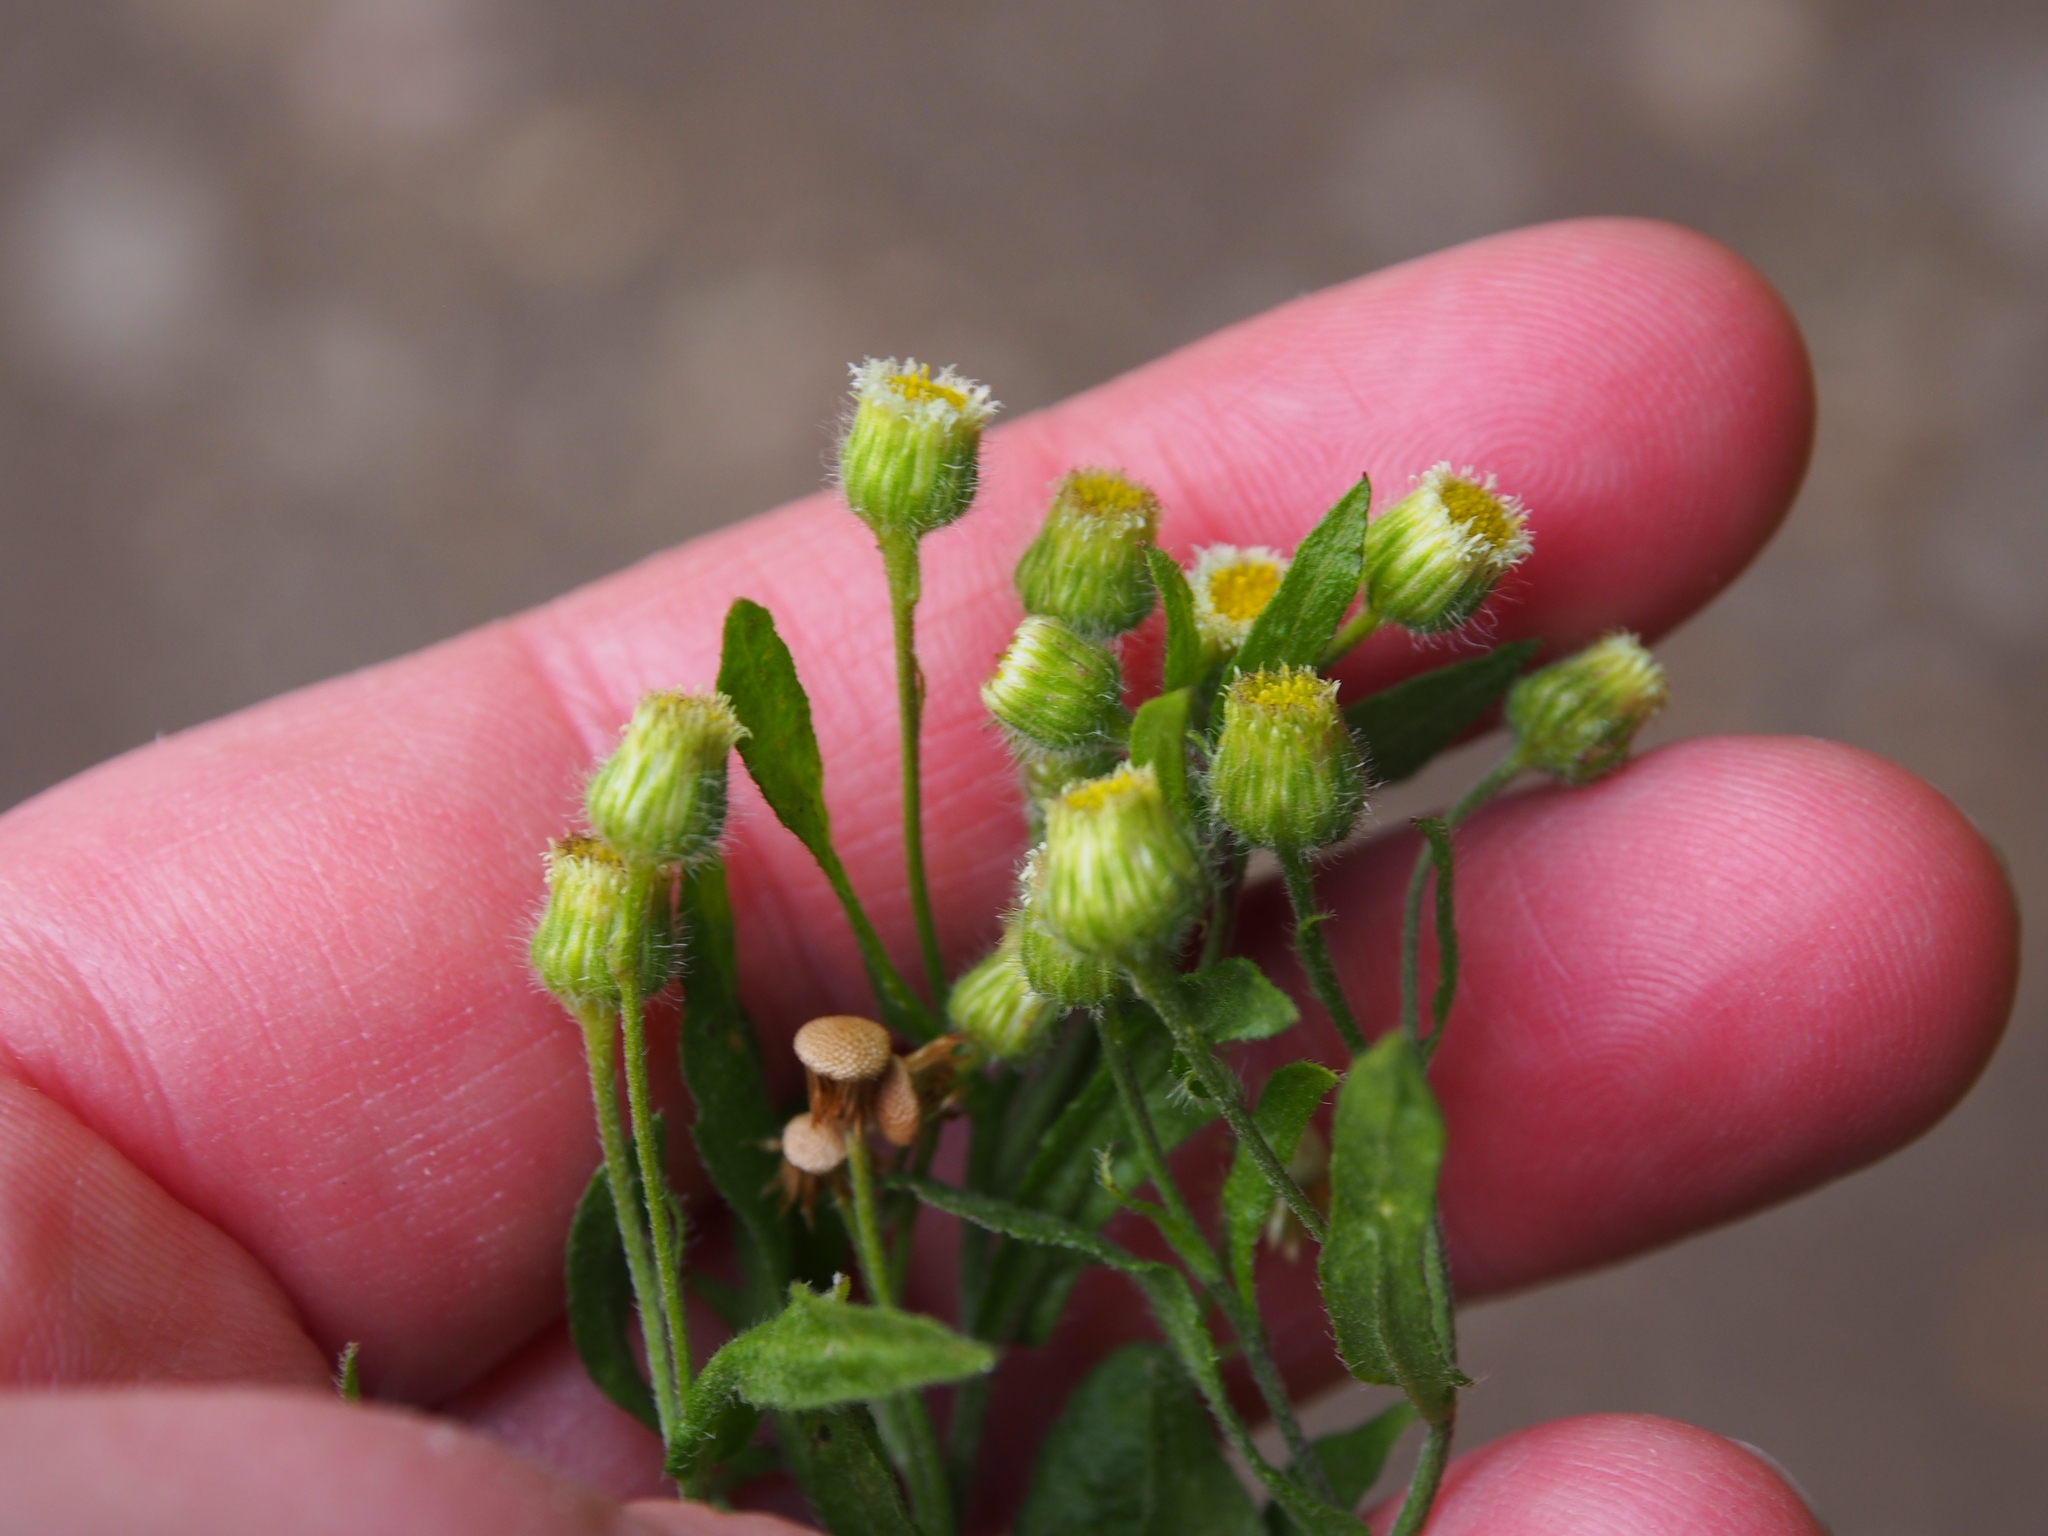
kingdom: Plantae
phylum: Tracheophyta
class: Magnoliopsida
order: Asterales
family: Asteraceae
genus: Erigeron
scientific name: Erigeron sumatrensis
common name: Daisy
